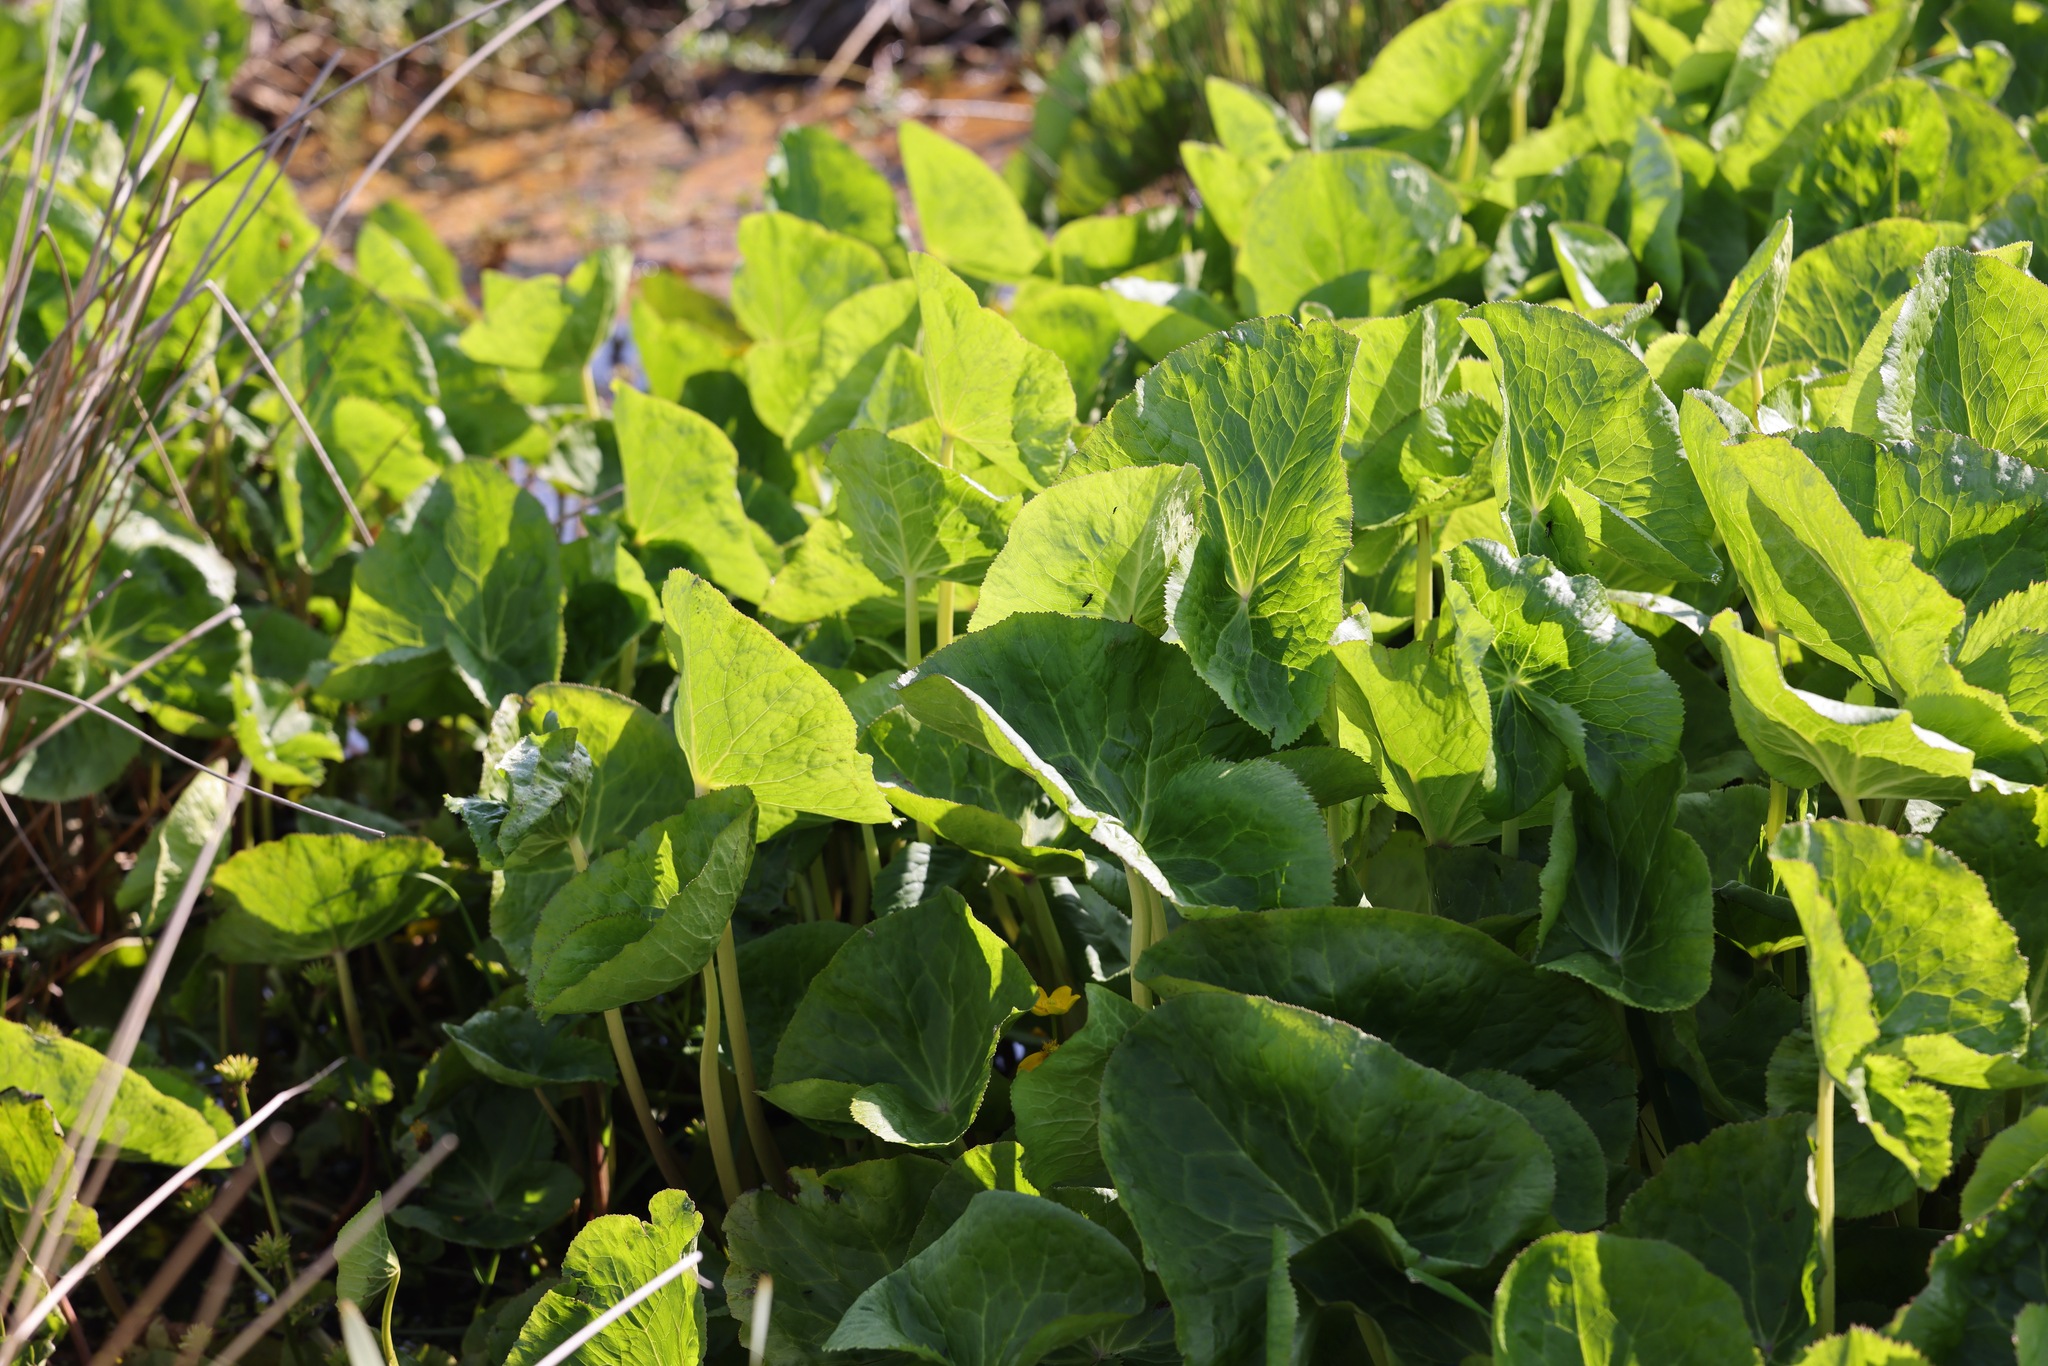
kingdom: Plantae
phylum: Tracheophyta
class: Magnoliopsida
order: Ranunculales
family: Ranunculaceae
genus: Caltha
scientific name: Caltha palustris
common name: Marsh marigold
